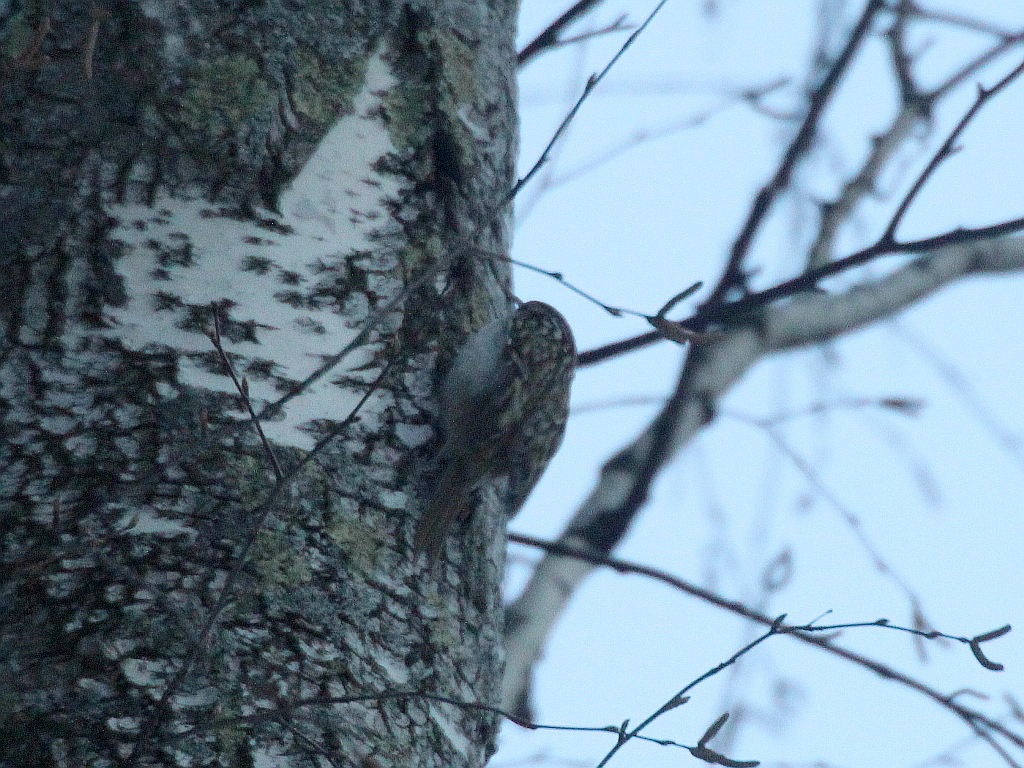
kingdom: Animalia
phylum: Chordata
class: Aves
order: Passeriformes
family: Certhiidae
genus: Certhia
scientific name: Certhia familiaris
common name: Eurasian treecreeper
